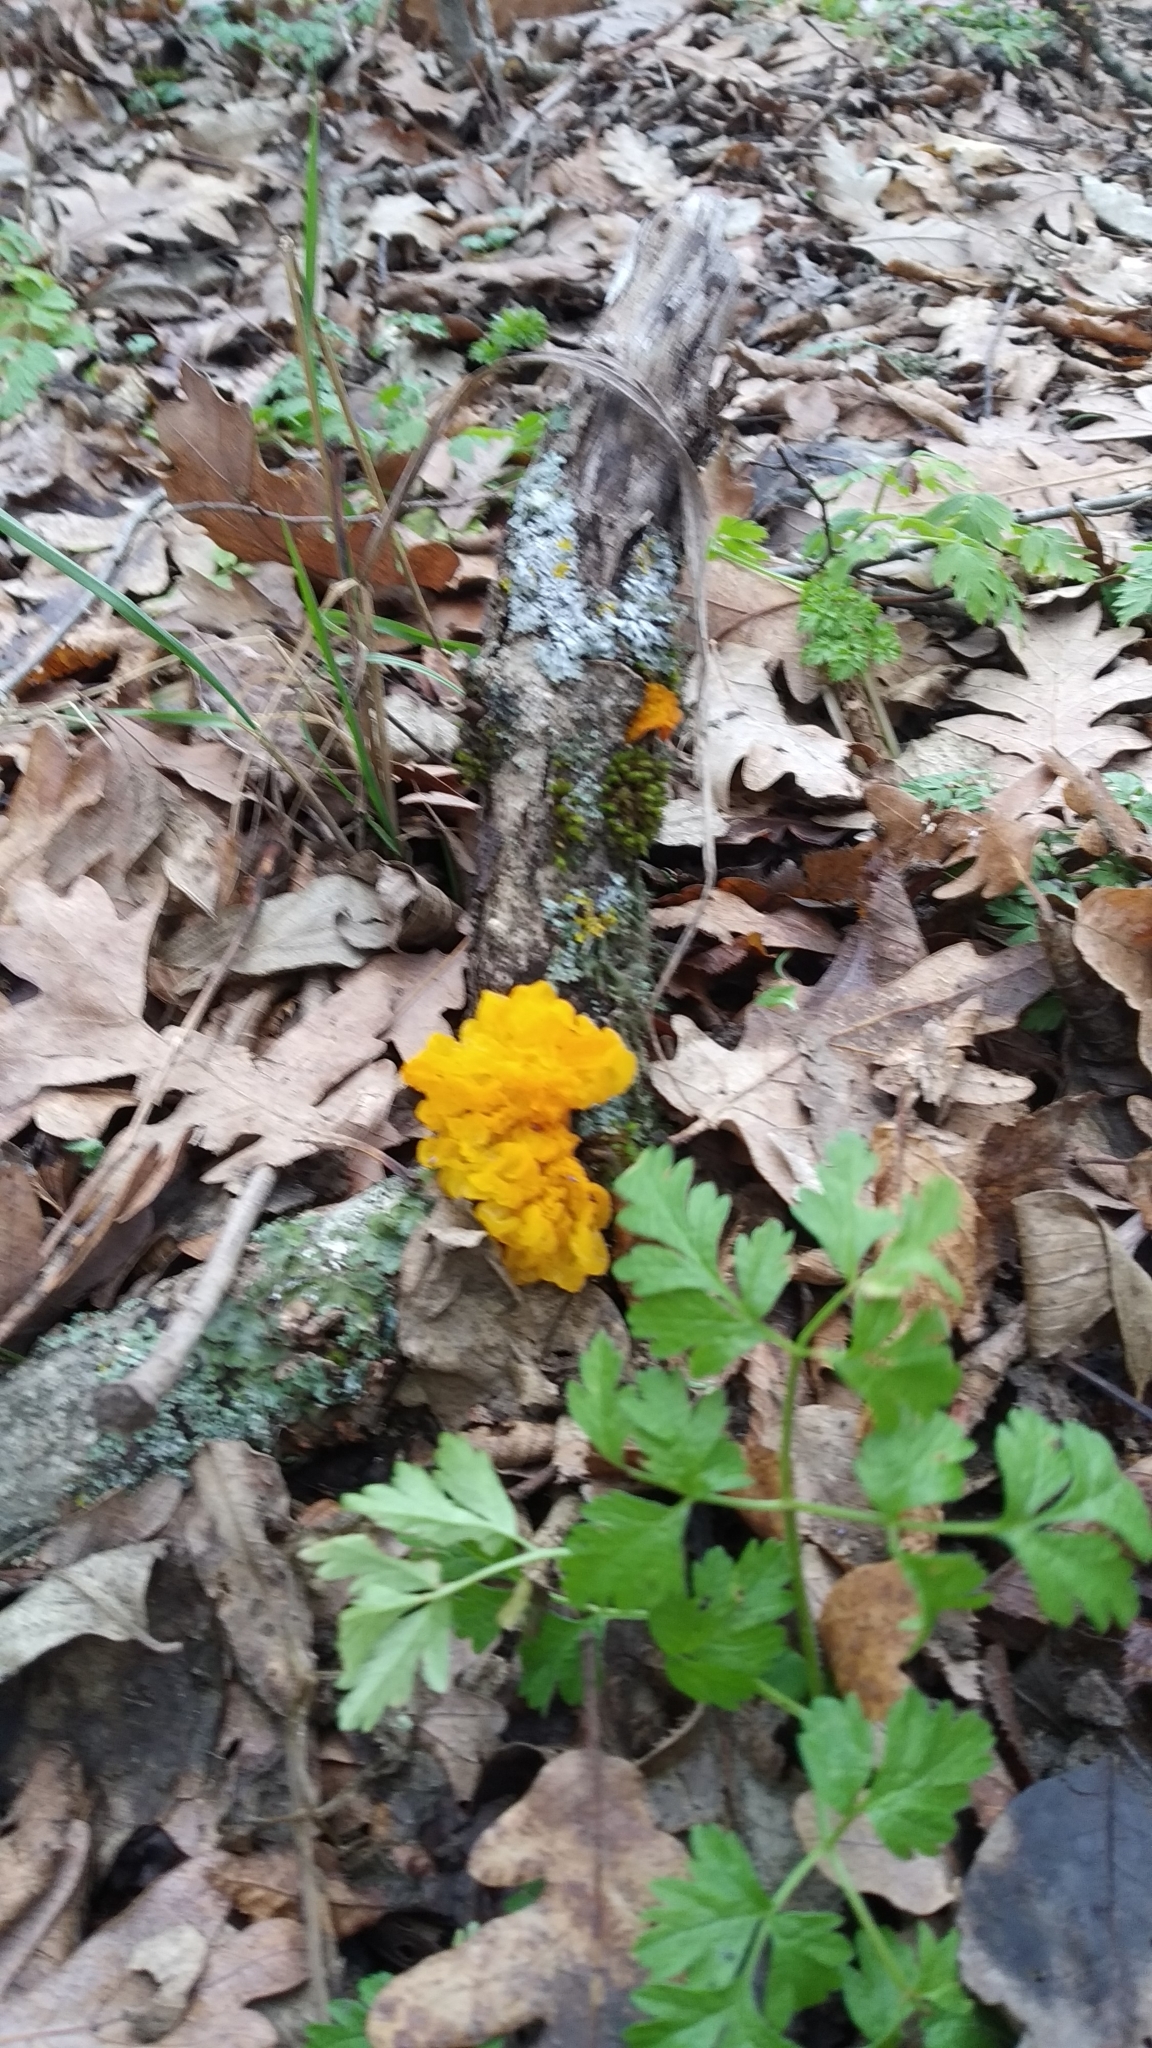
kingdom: Fungi
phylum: Basidiomycota
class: Tremellomycetes
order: Tremellales
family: Tremellaceae
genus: Tremella
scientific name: Tremella mesenterica
